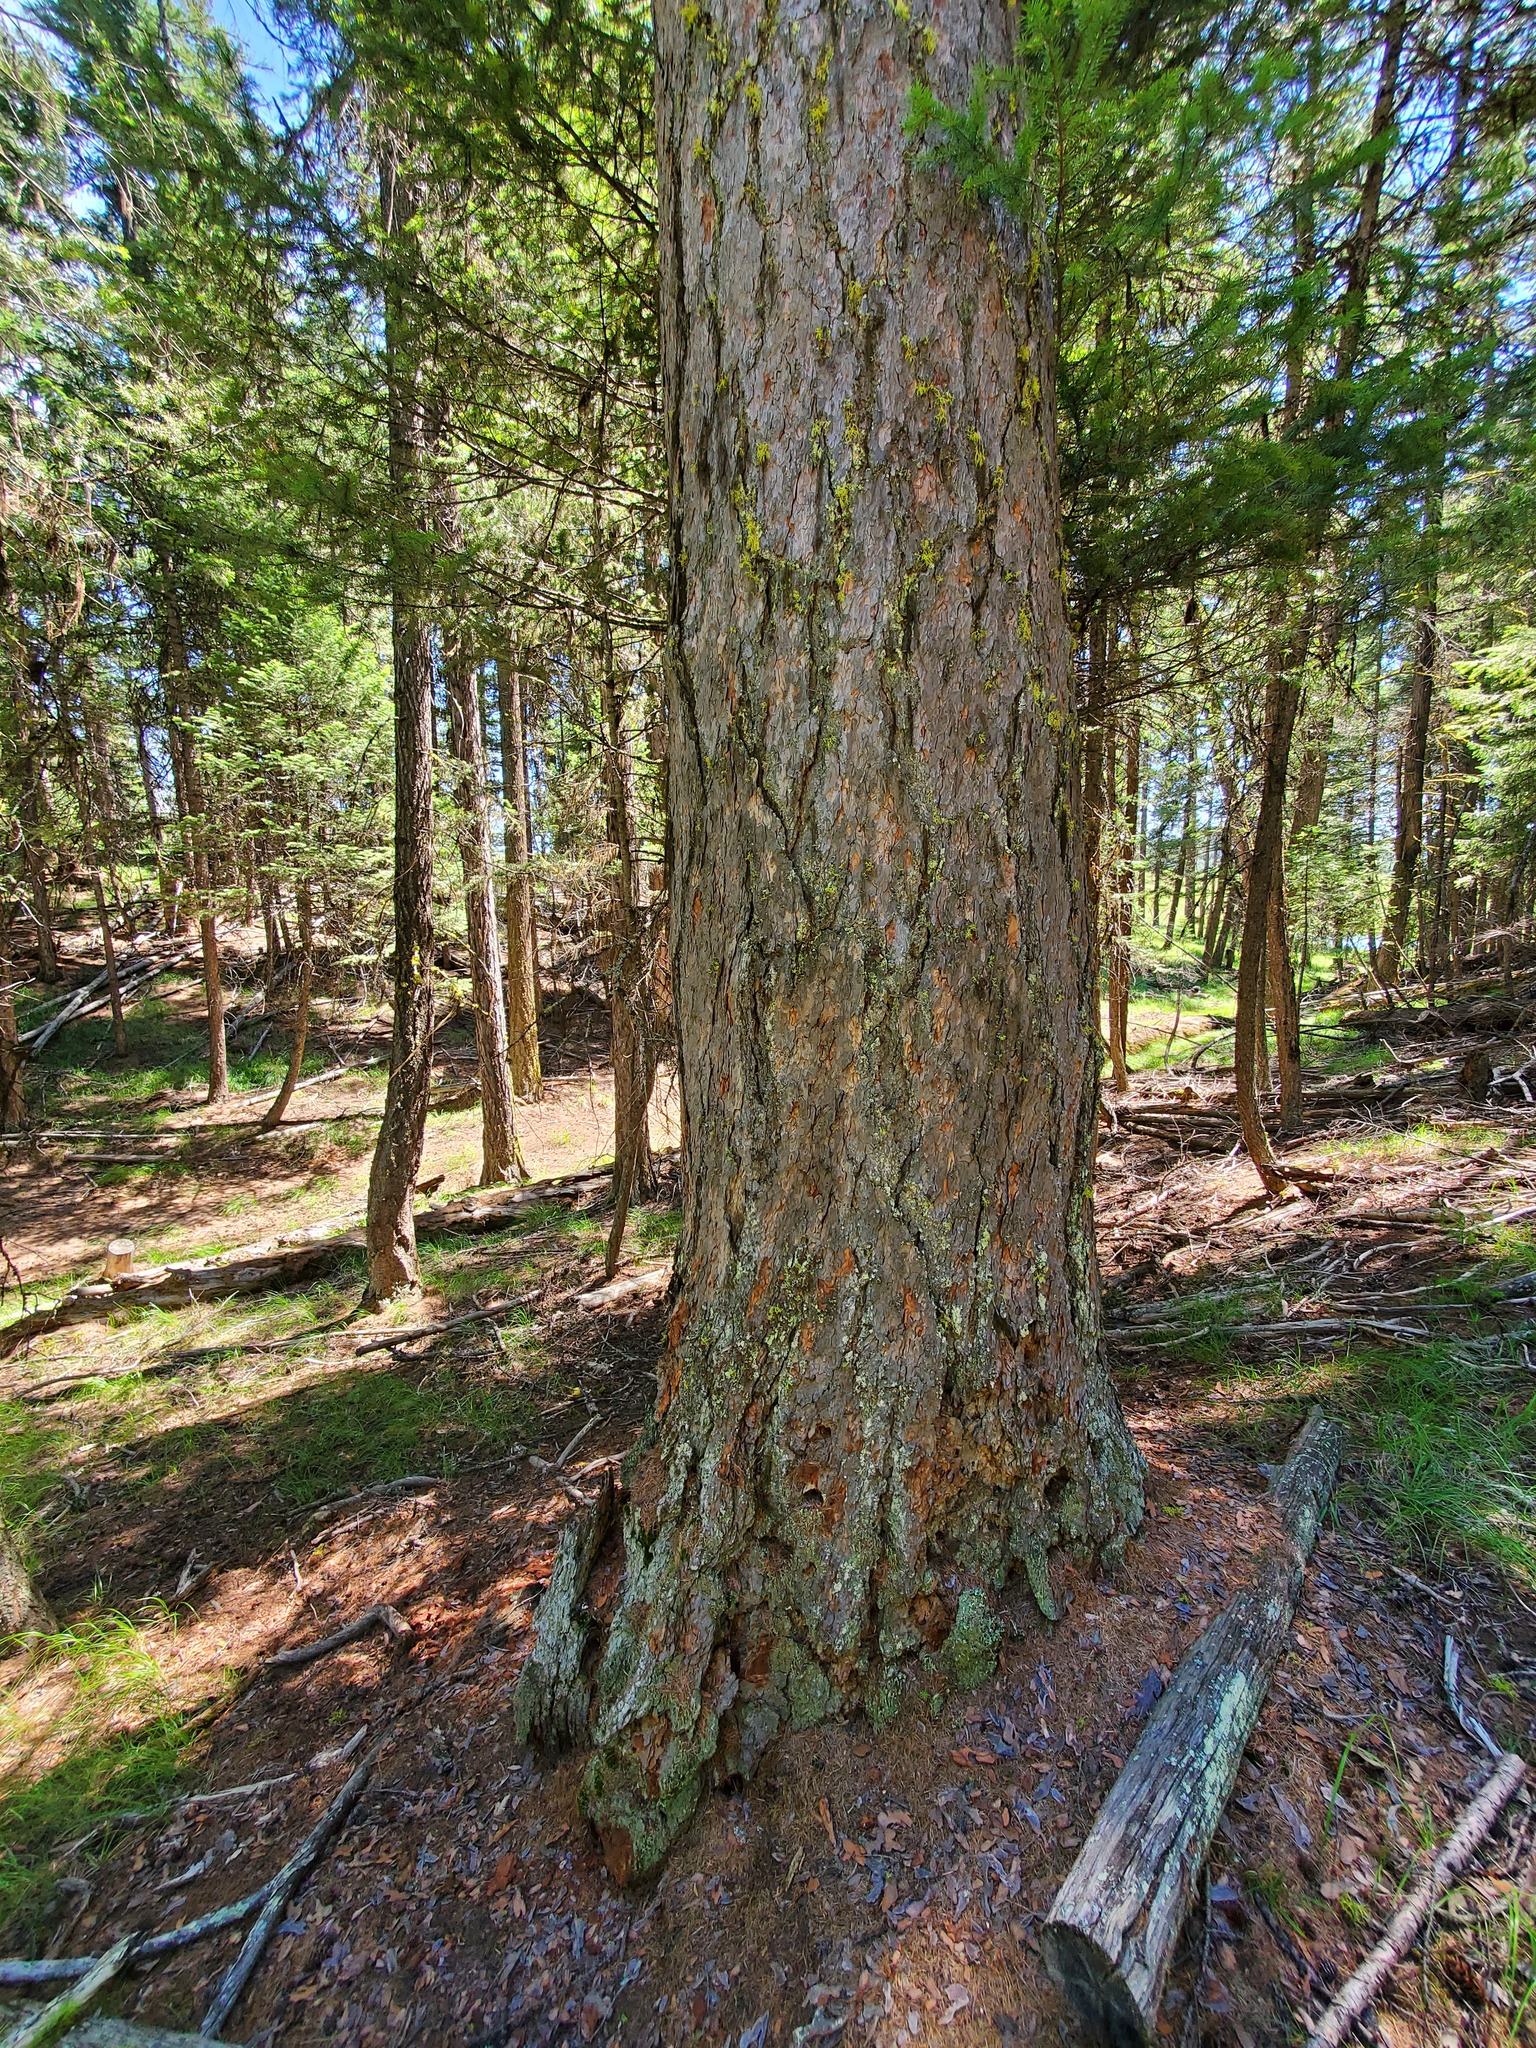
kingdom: Plantae
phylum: Tracheophyta
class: Pinopsida
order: Pinales
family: Pinaceae
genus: Pseudotsuga
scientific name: Pseudotsuga menziesii
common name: Douglas fir
